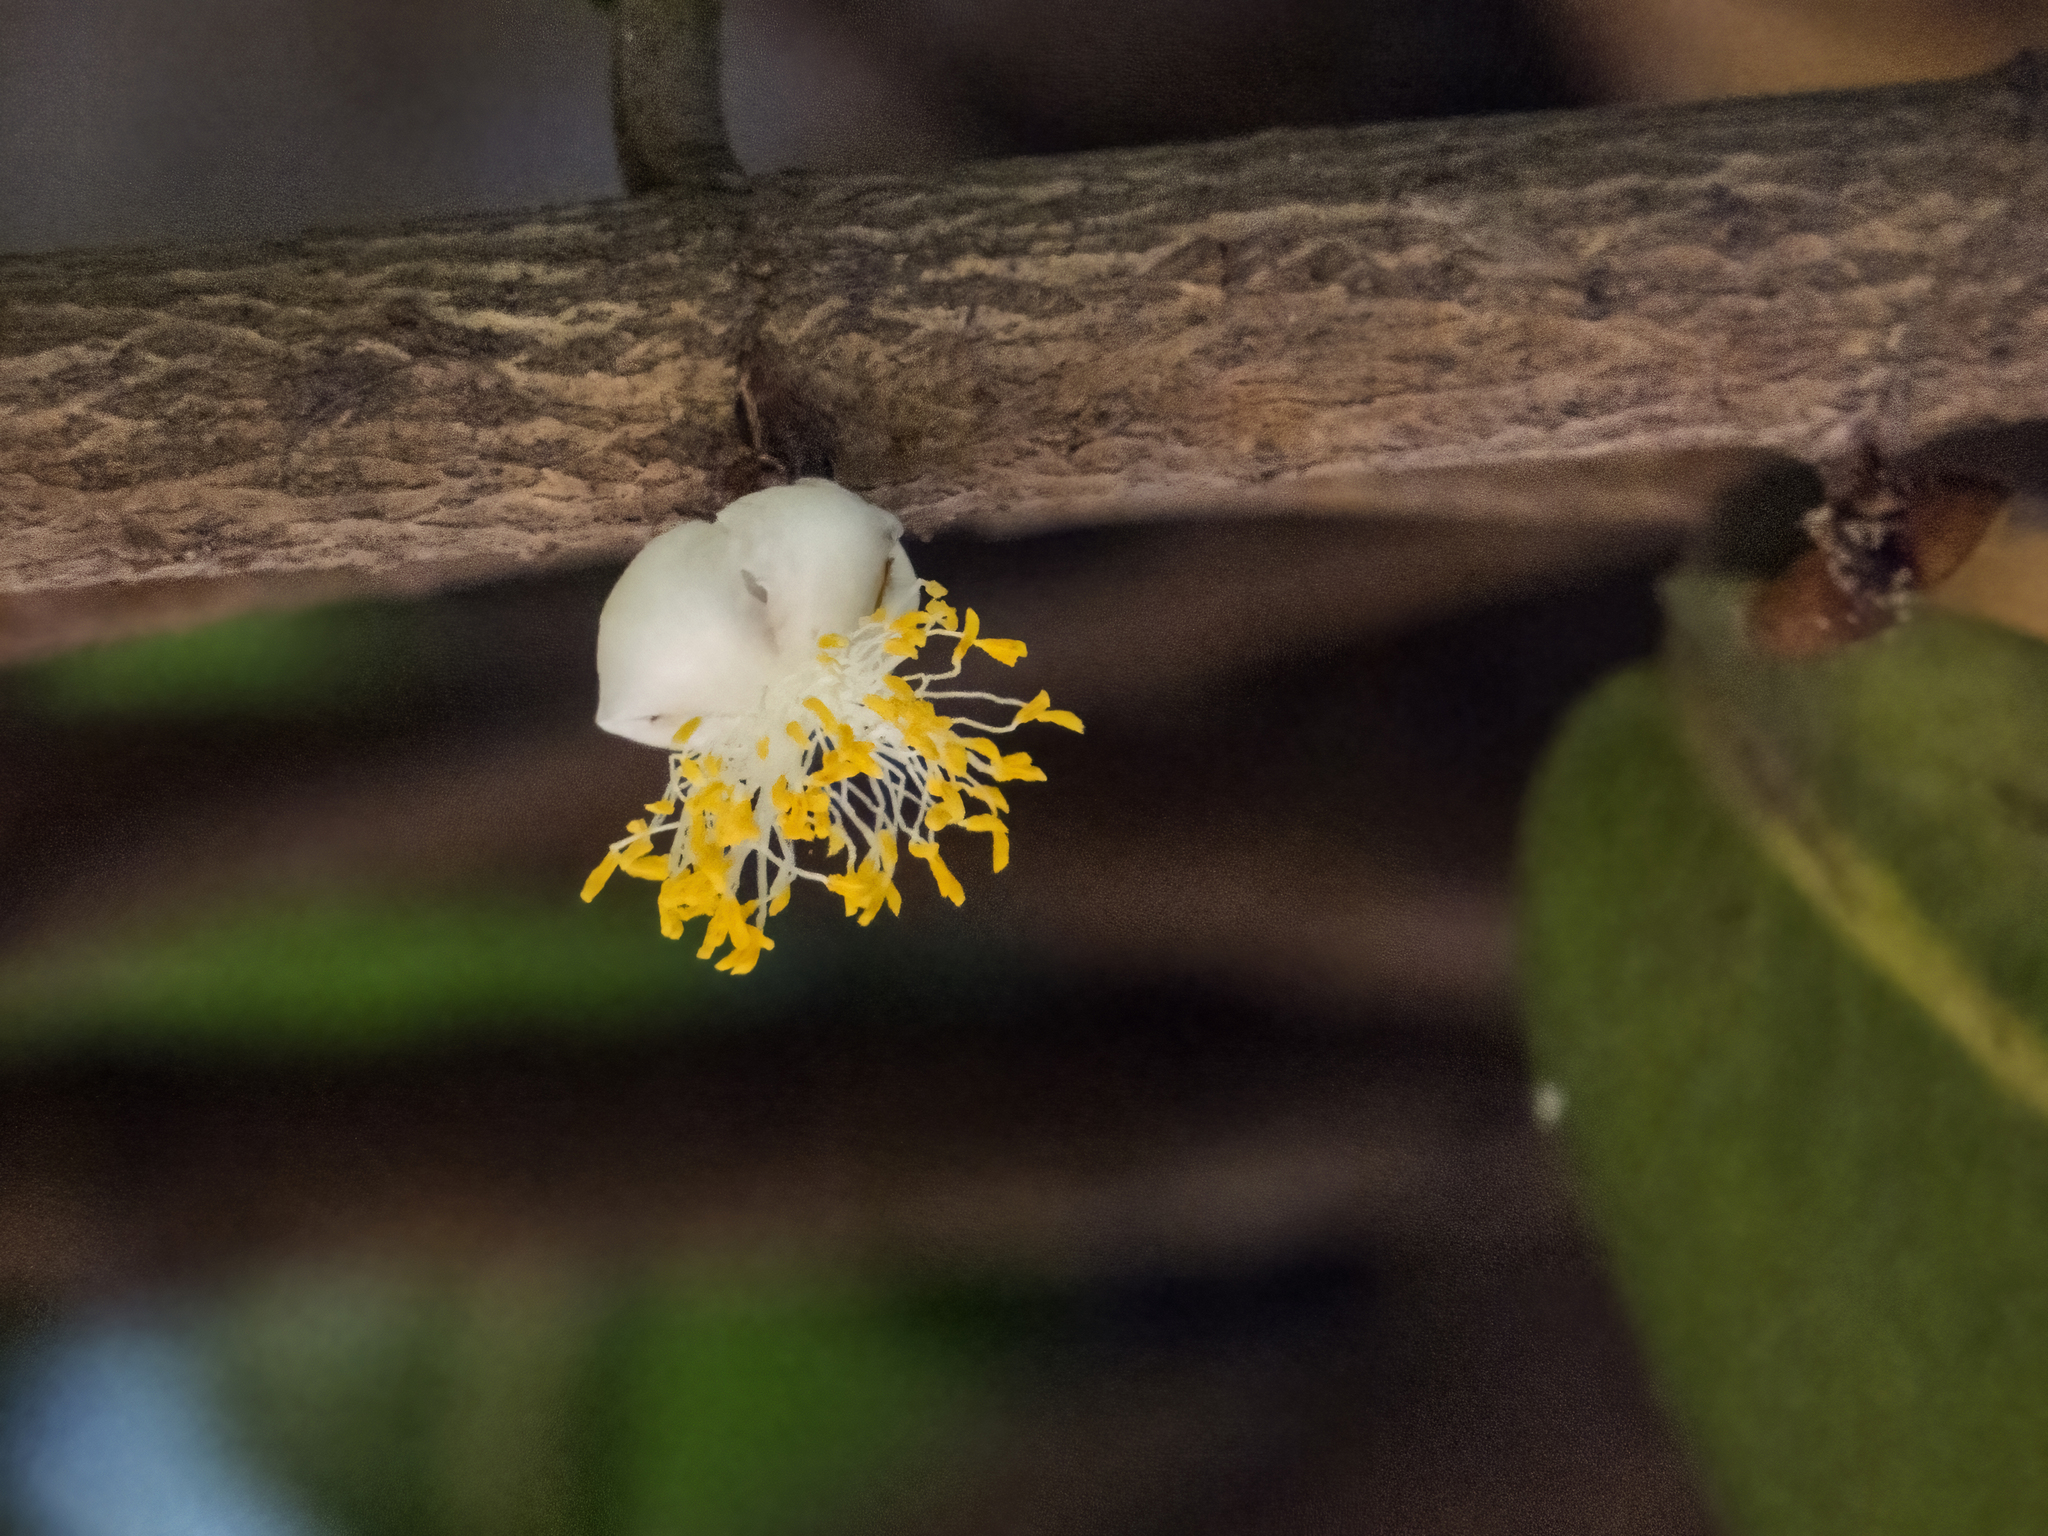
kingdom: Plantae
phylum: Tracheophyta
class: Magnoliopsida
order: Malpighiales
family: Calophyllaceae
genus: Mammea
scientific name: Mammea suriga
